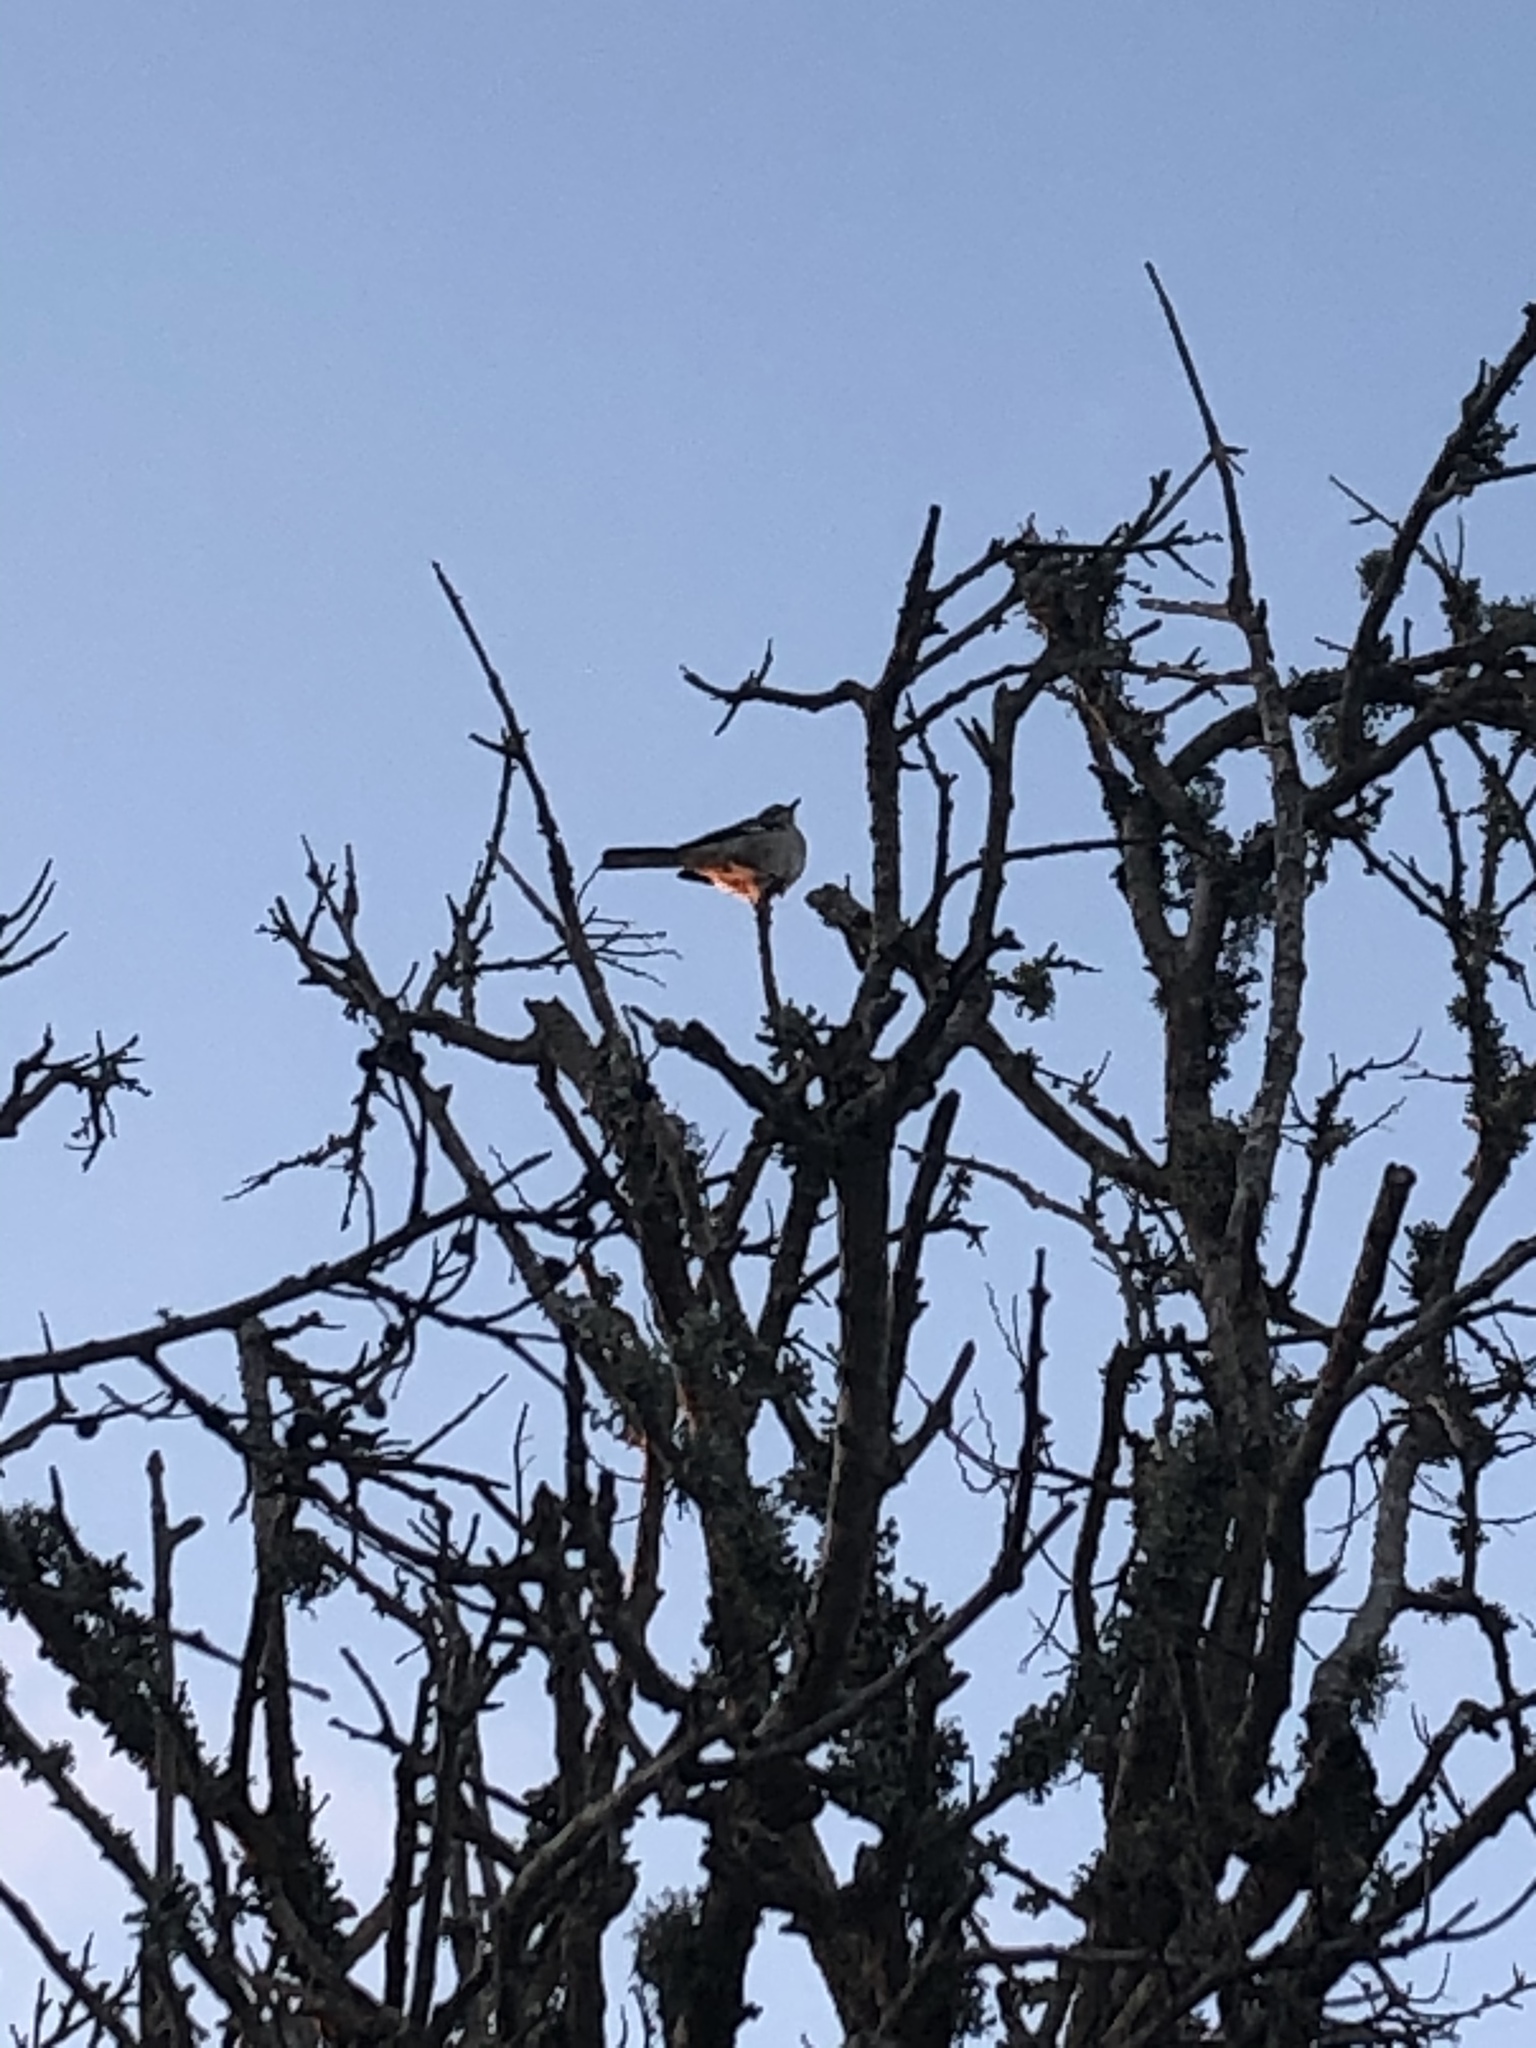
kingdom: Animalia
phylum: Chordata
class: Aves
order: Passeriformes
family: Mimidae
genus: Mimus
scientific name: Mimus polyglottos
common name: Northern mockingbird
